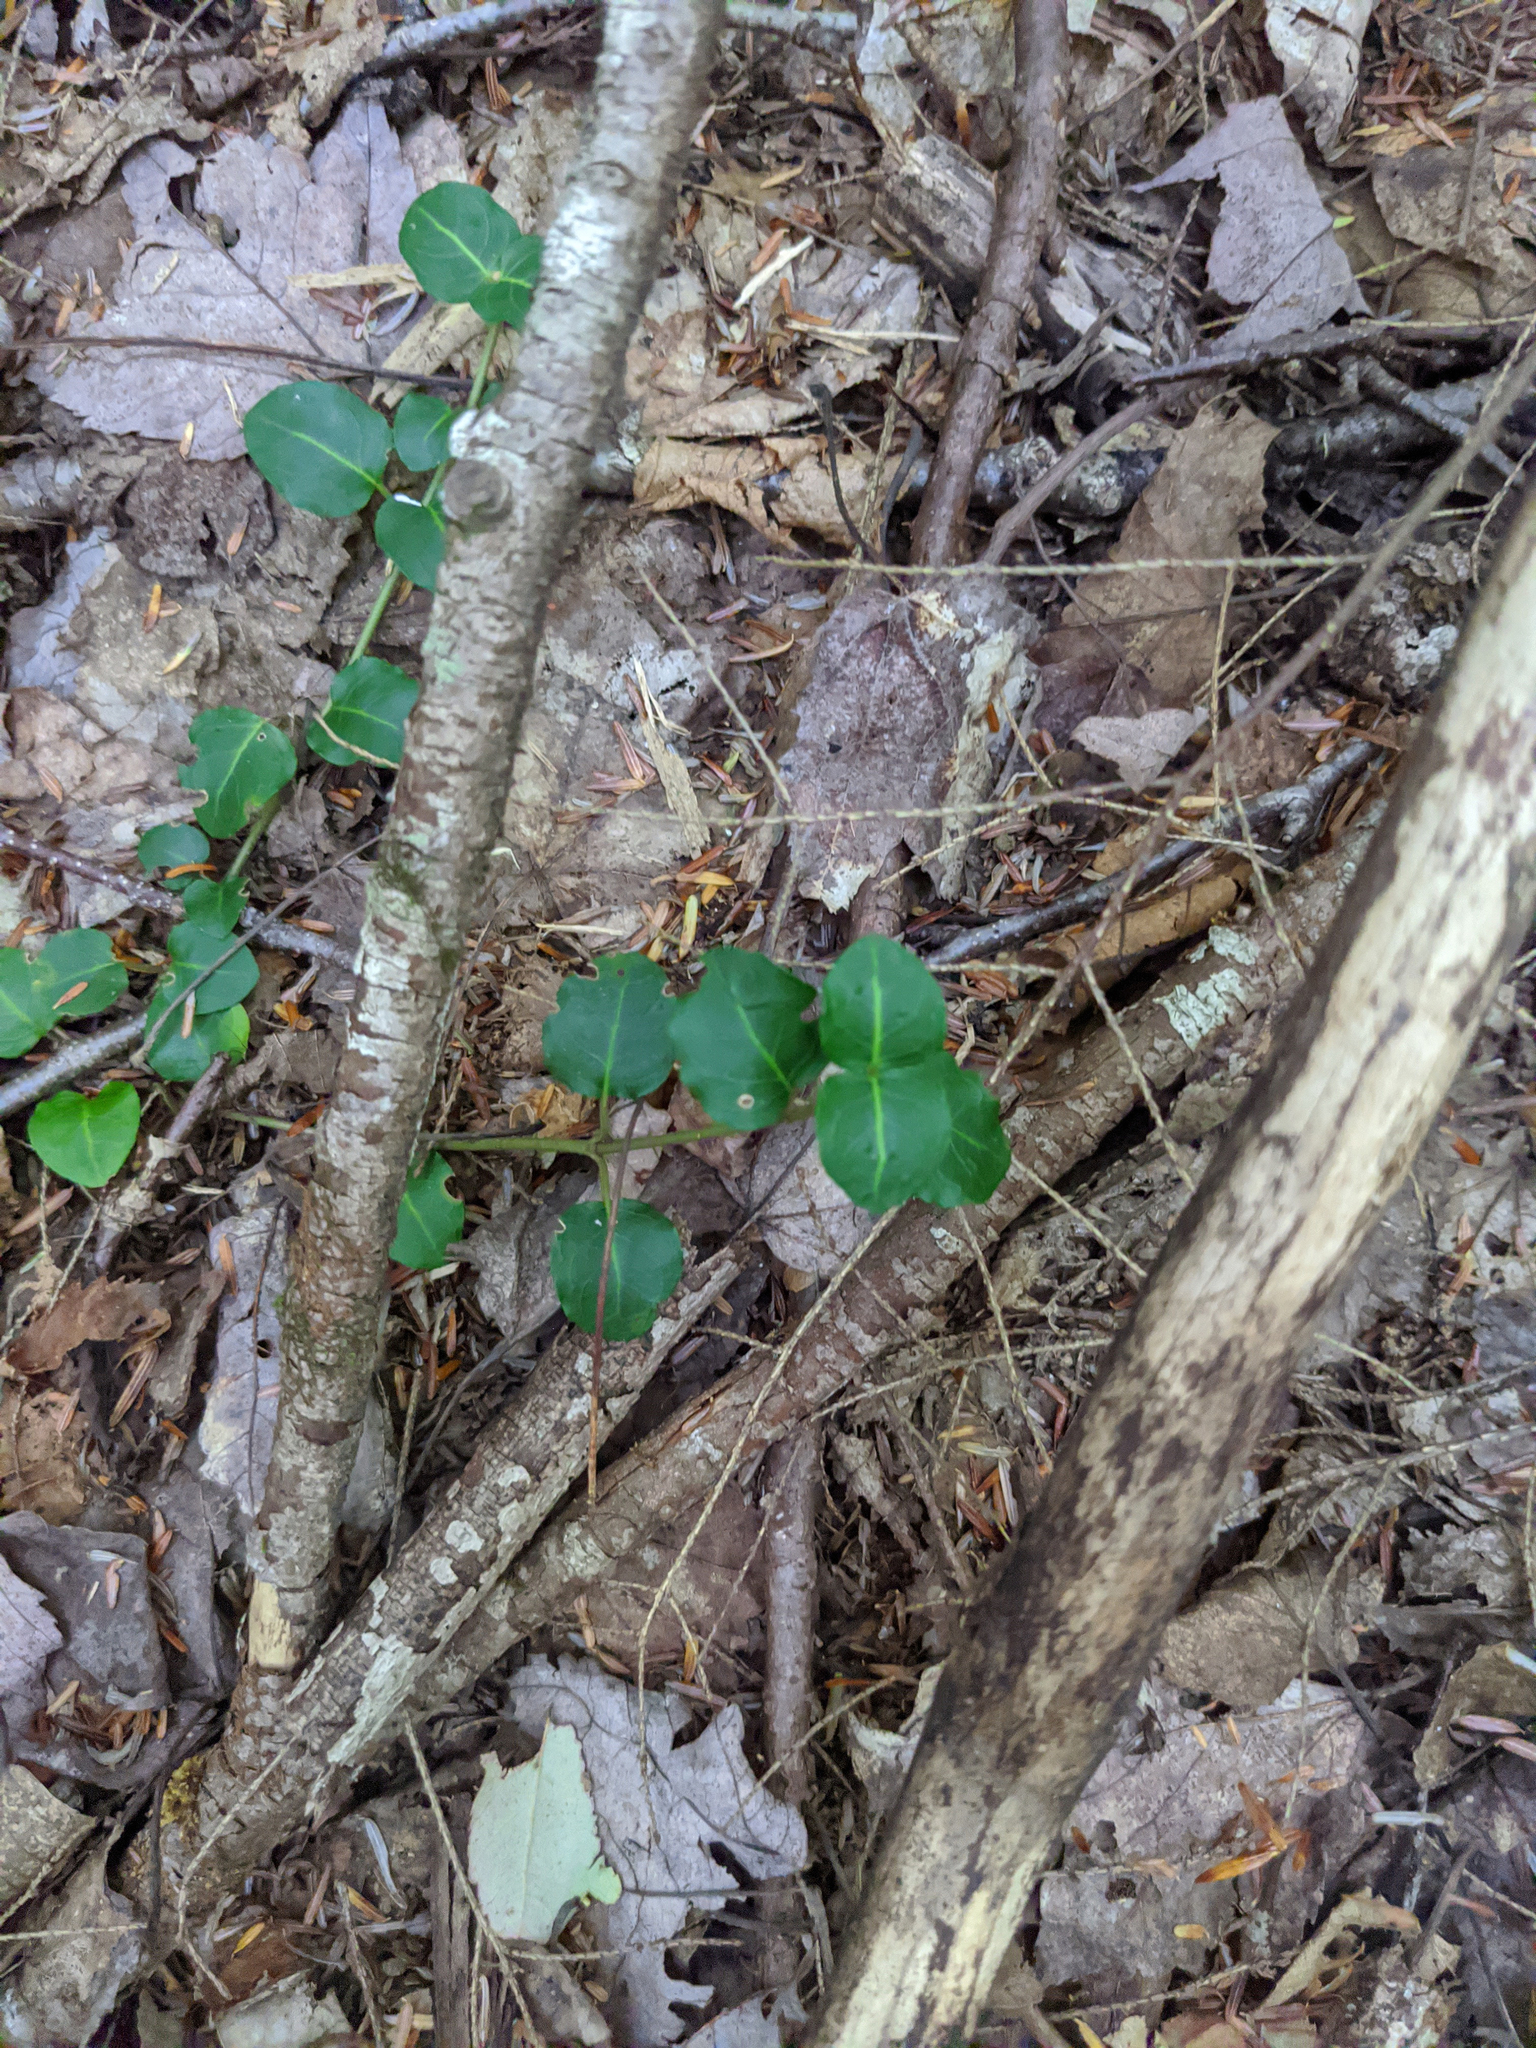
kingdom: Plantae
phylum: Tracheophyta
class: Magnoliopsida
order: Gentianales
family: Rubiaceae
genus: Mitchella
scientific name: Mitchella repens
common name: Partridge-berry
